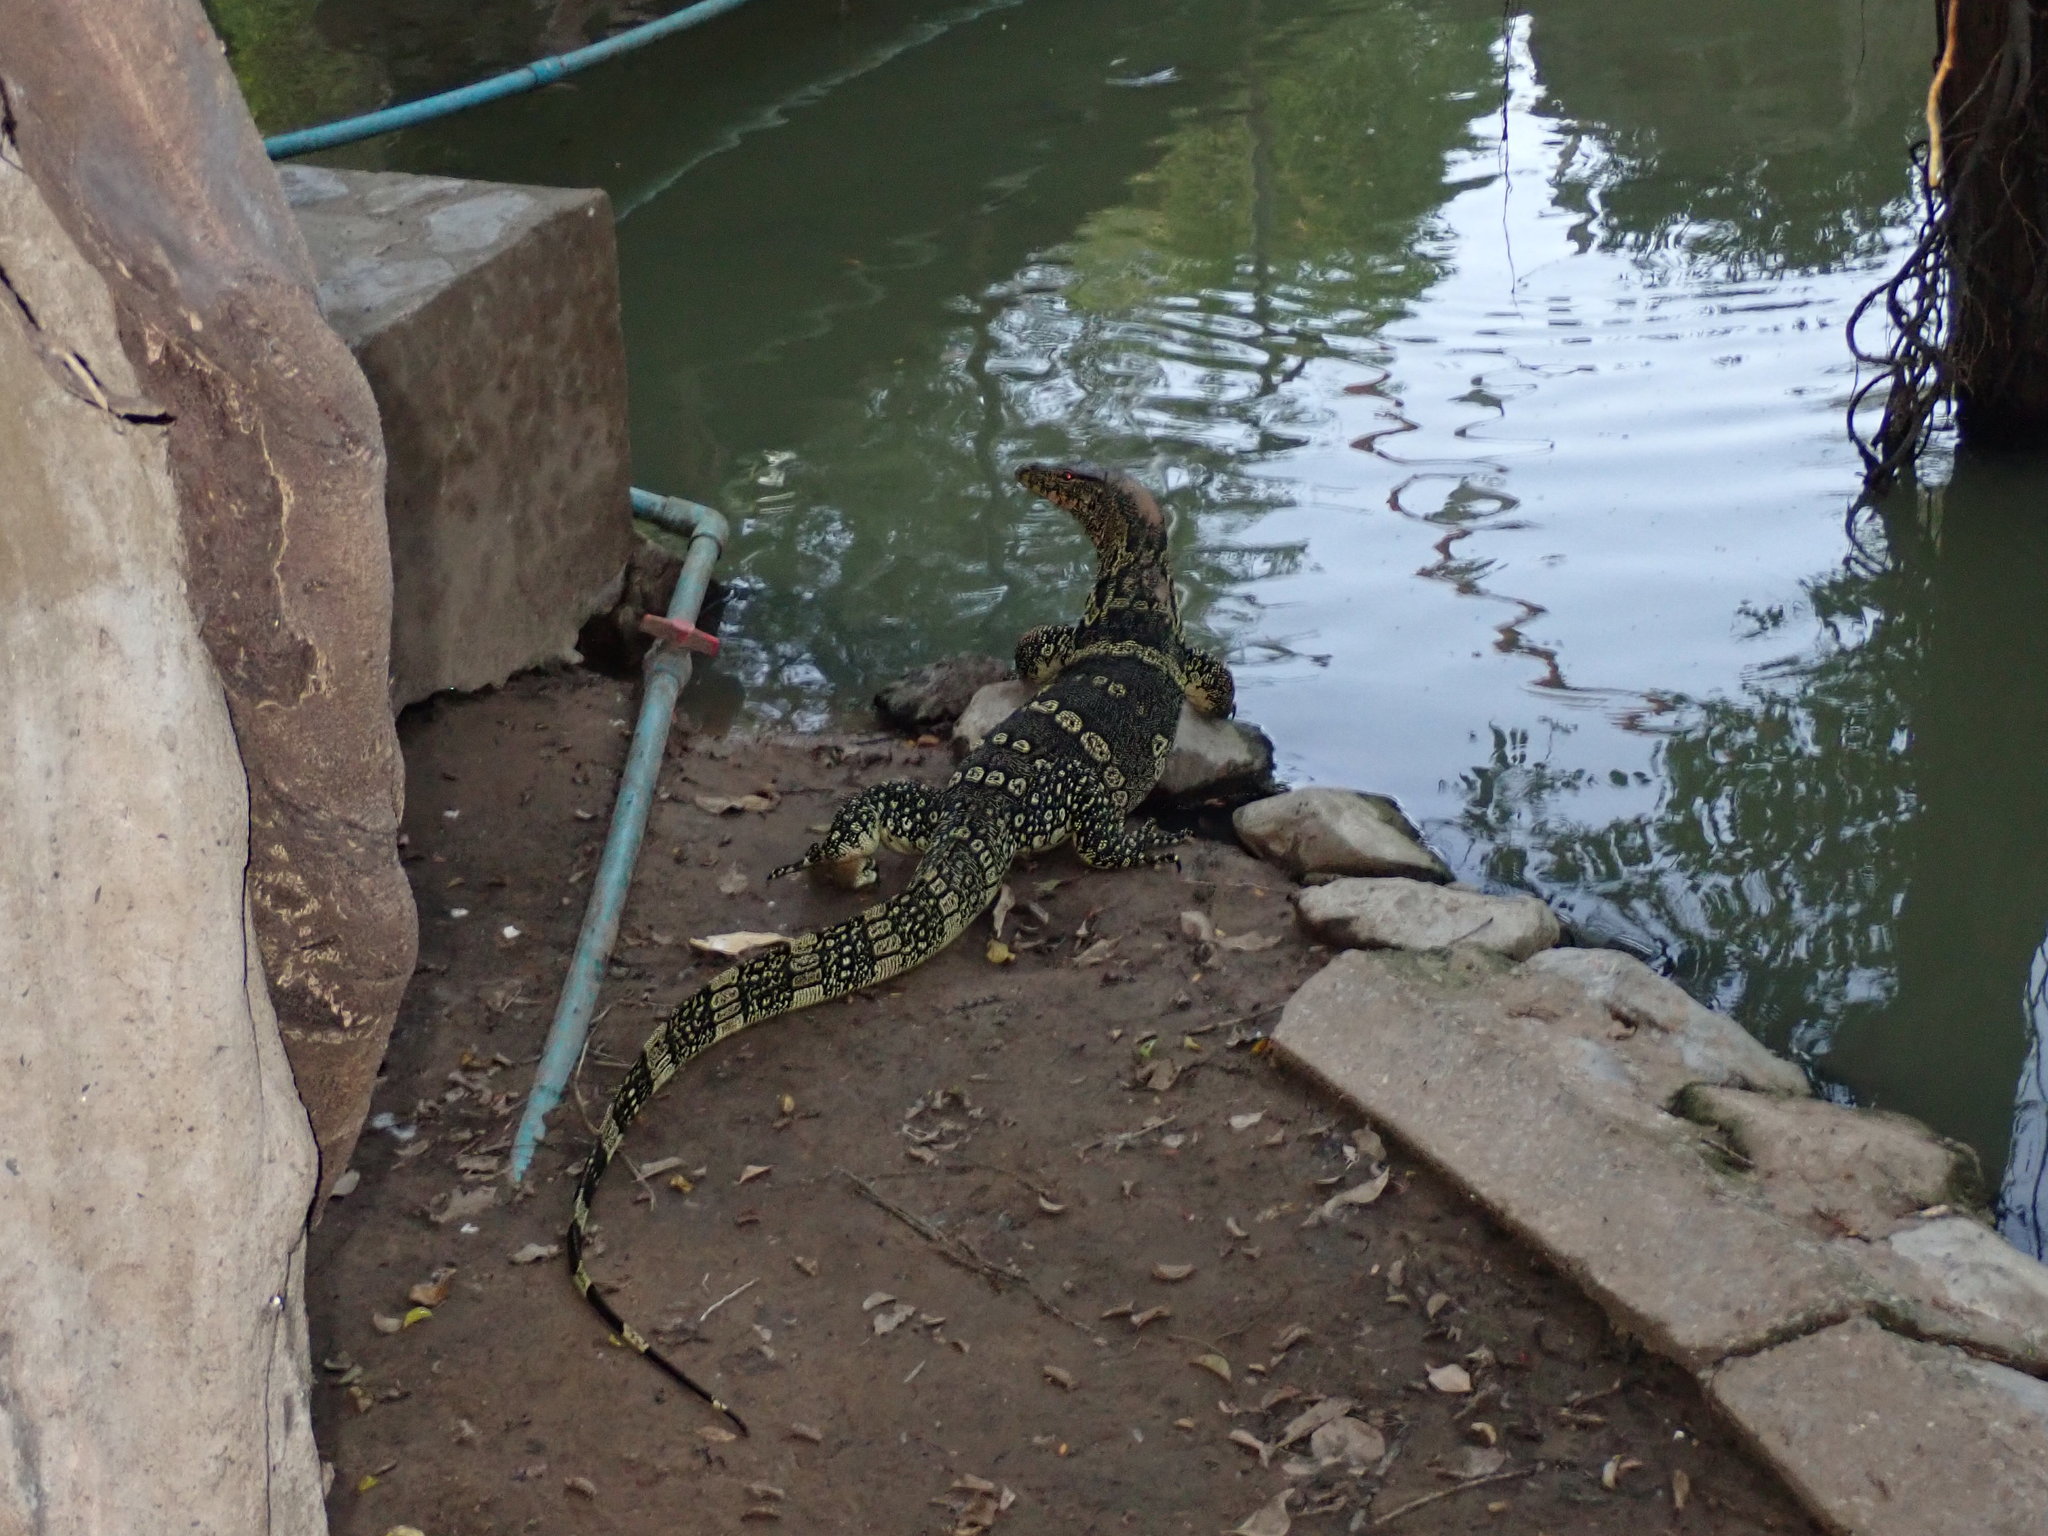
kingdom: Animalia
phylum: Chordata
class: Squamata
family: Varanidae
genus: Varanus
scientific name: Varanus salvator
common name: Common water monitor
